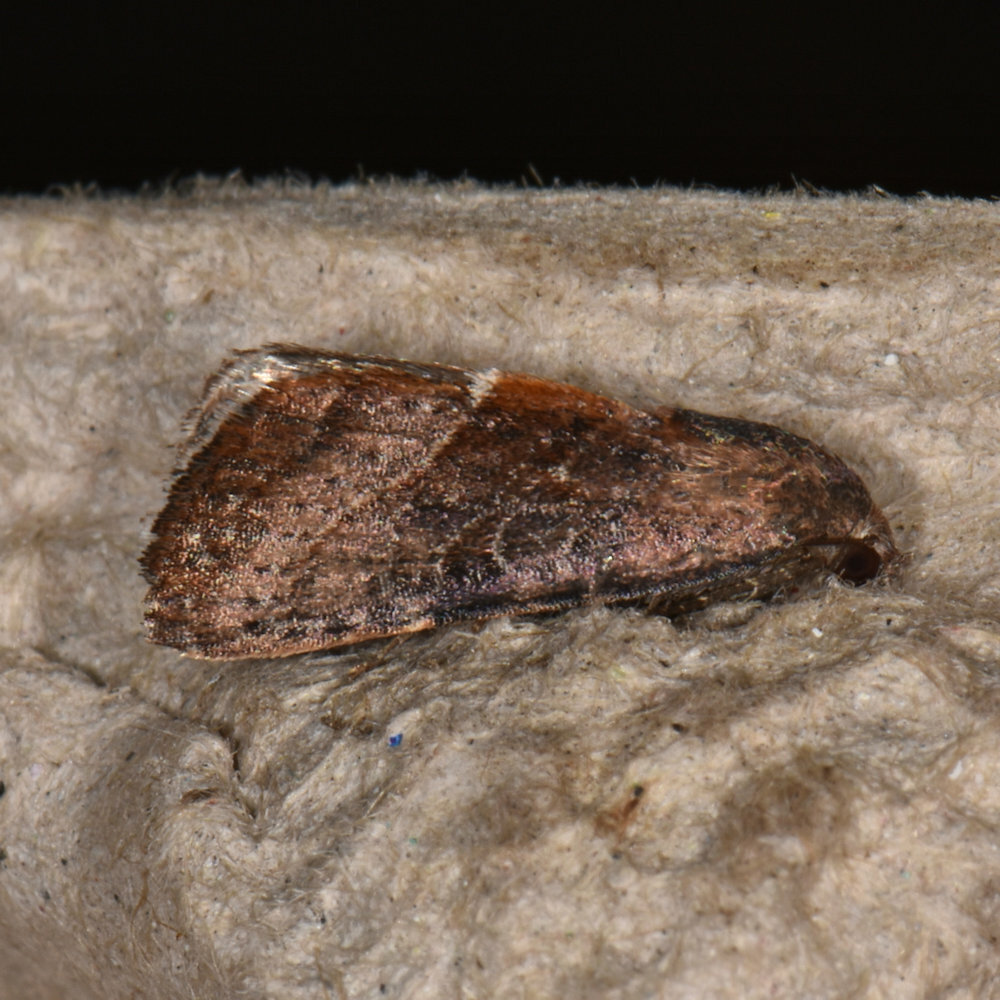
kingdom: Animalia
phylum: Arthropoda
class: Insecta
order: Lepidoptera
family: Noctuidae
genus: Galgula
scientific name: Galgula partita
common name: Wedgeling
